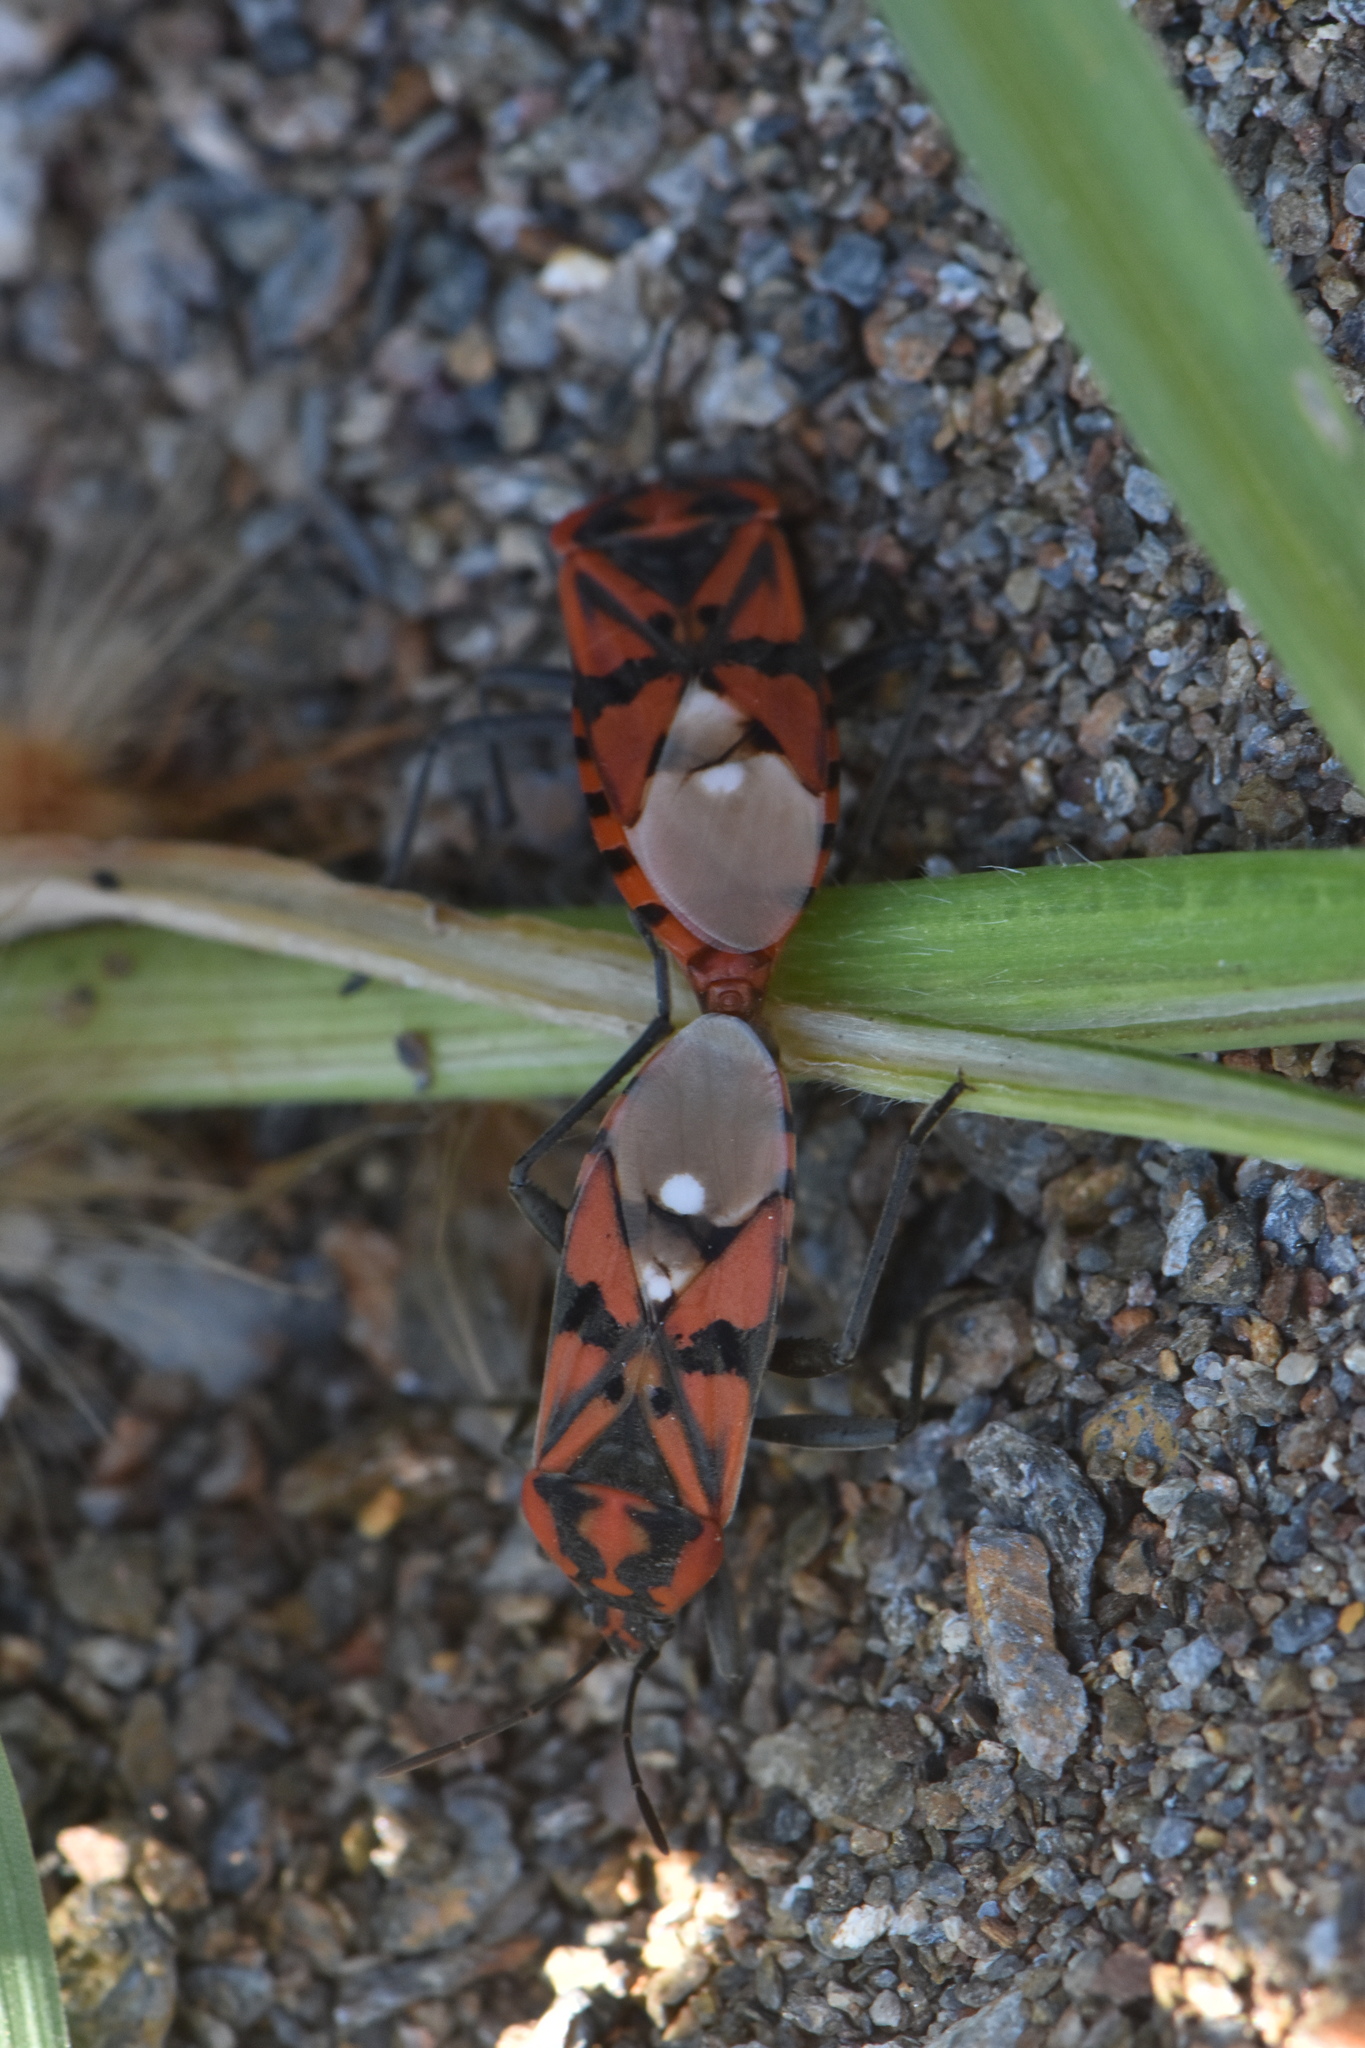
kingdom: Animalia
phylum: Arthropoda
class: Insecta
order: Hemiptera
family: Lygaeidae
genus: Spilostethus
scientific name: Spilostethus pandurus
